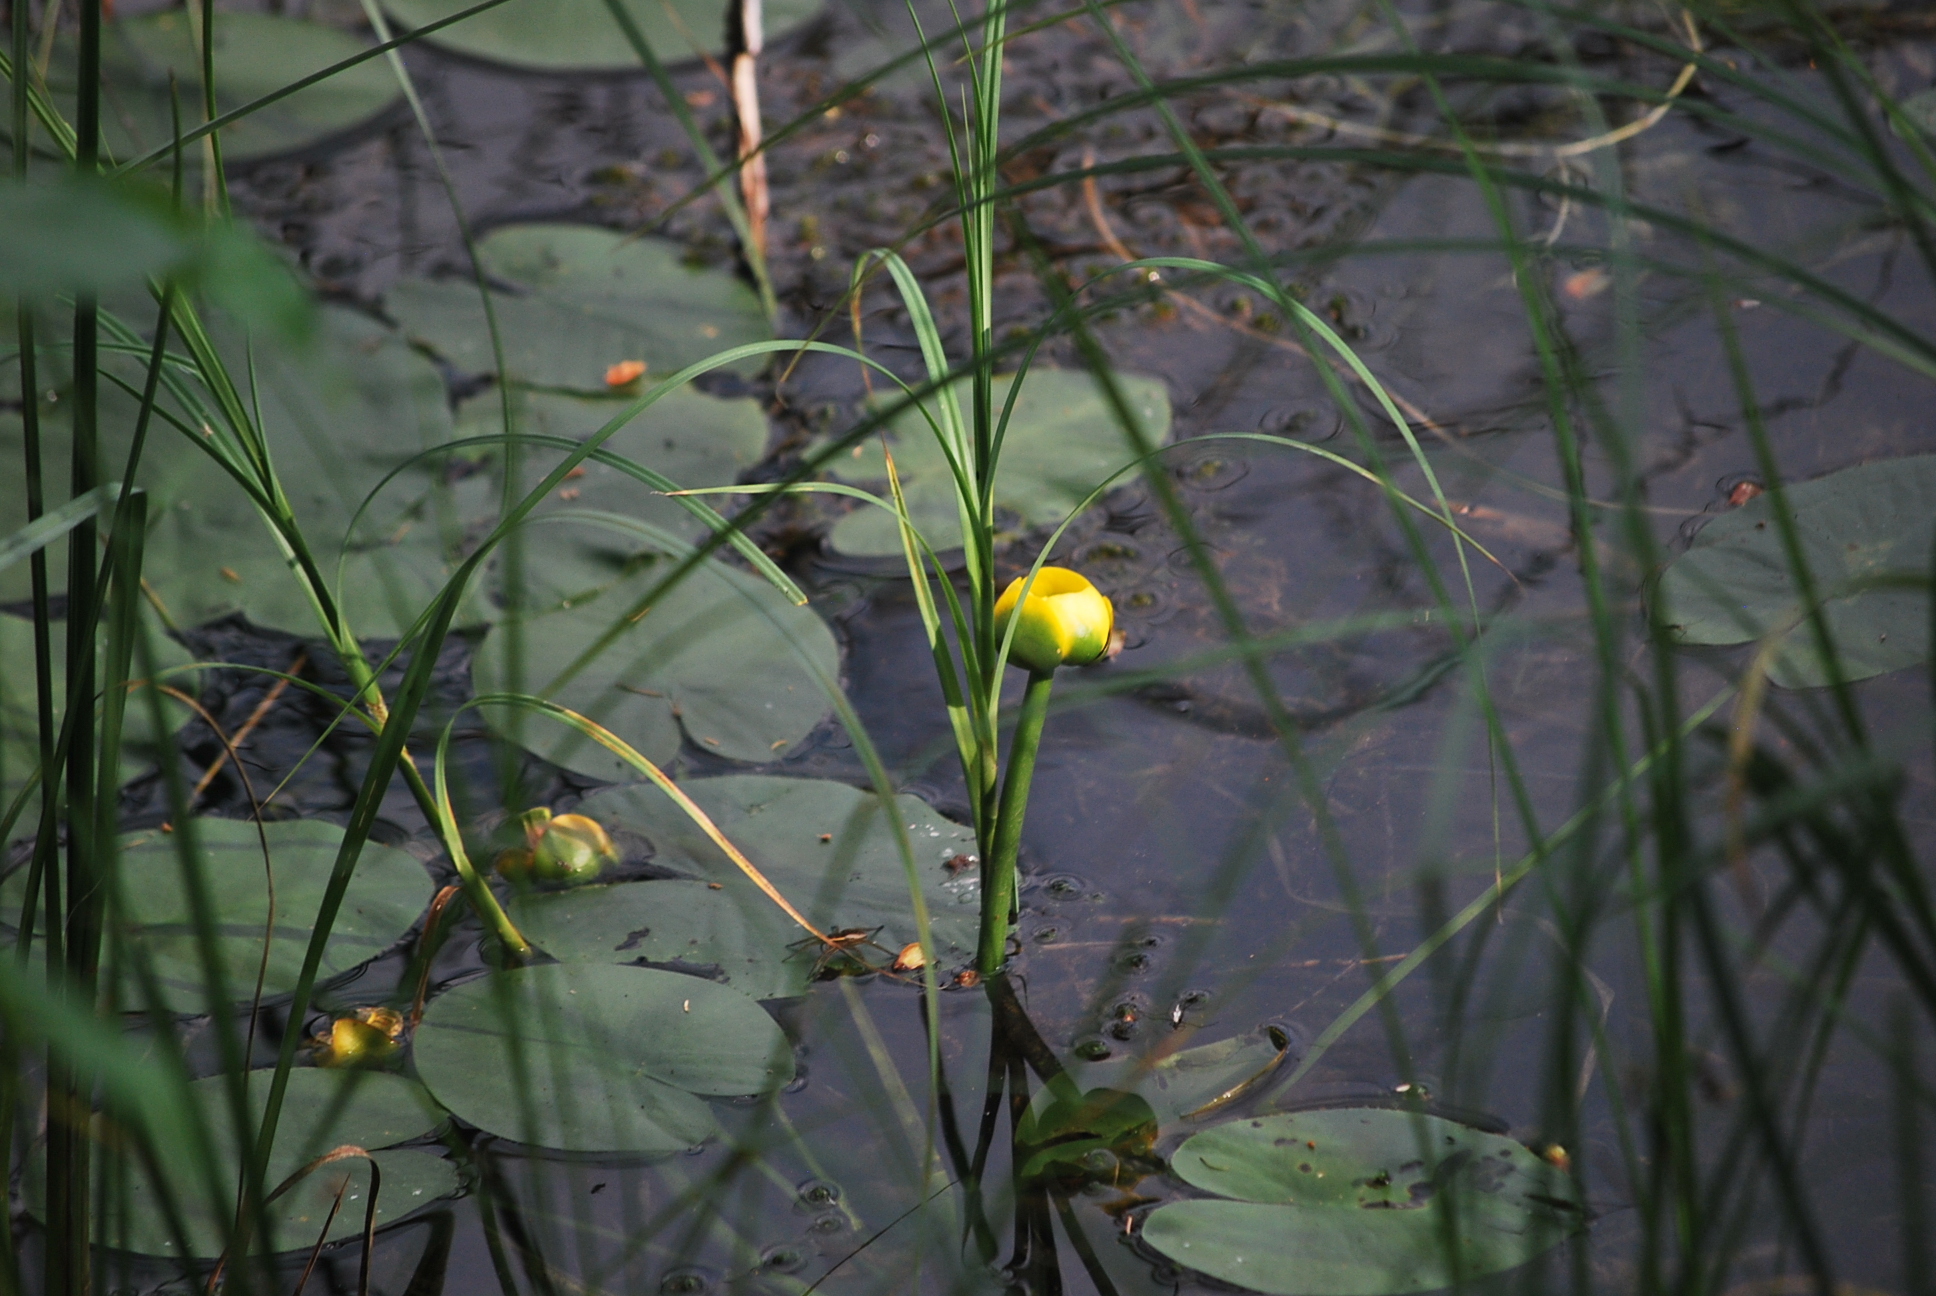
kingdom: Plantae
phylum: Tracheophyta
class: Magnoliopsida
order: Nymphaeales
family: Nymphaeaceae
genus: Nuphar
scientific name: Nuphar variegata
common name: Beaver-root
